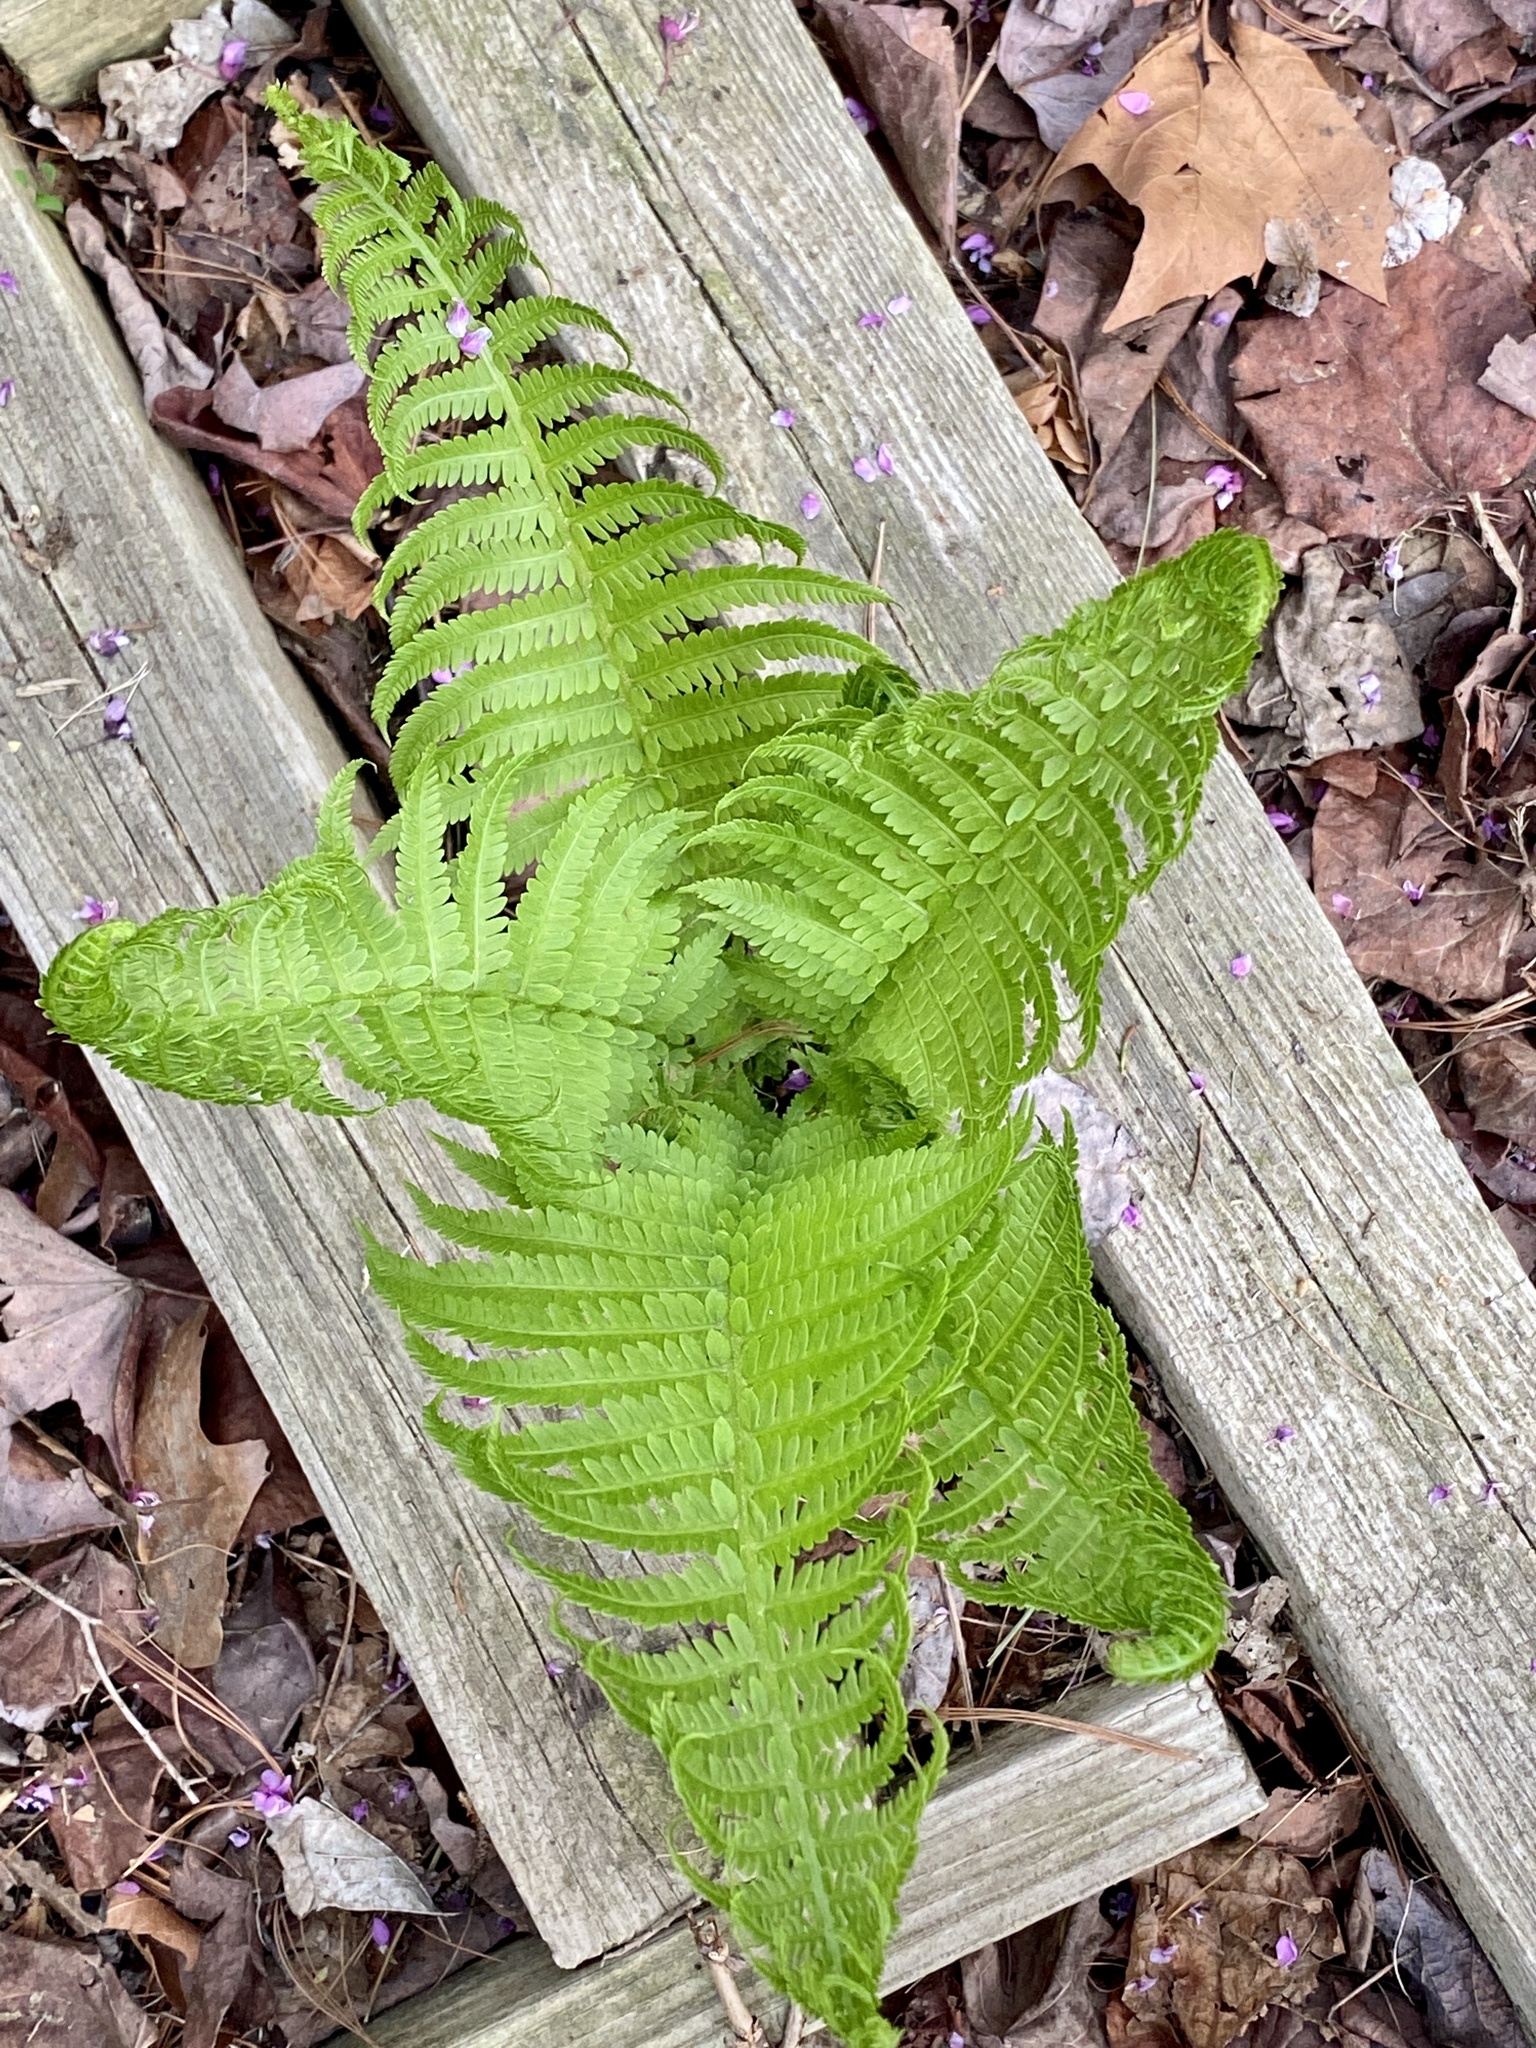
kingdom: Plantae
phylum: Tracheophyta
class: Polypodiopsida
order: Polypodiales
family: Onocleaceae
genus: Matteuccia
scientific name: Matteuccia struthiopteris
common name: Ostrich fern
